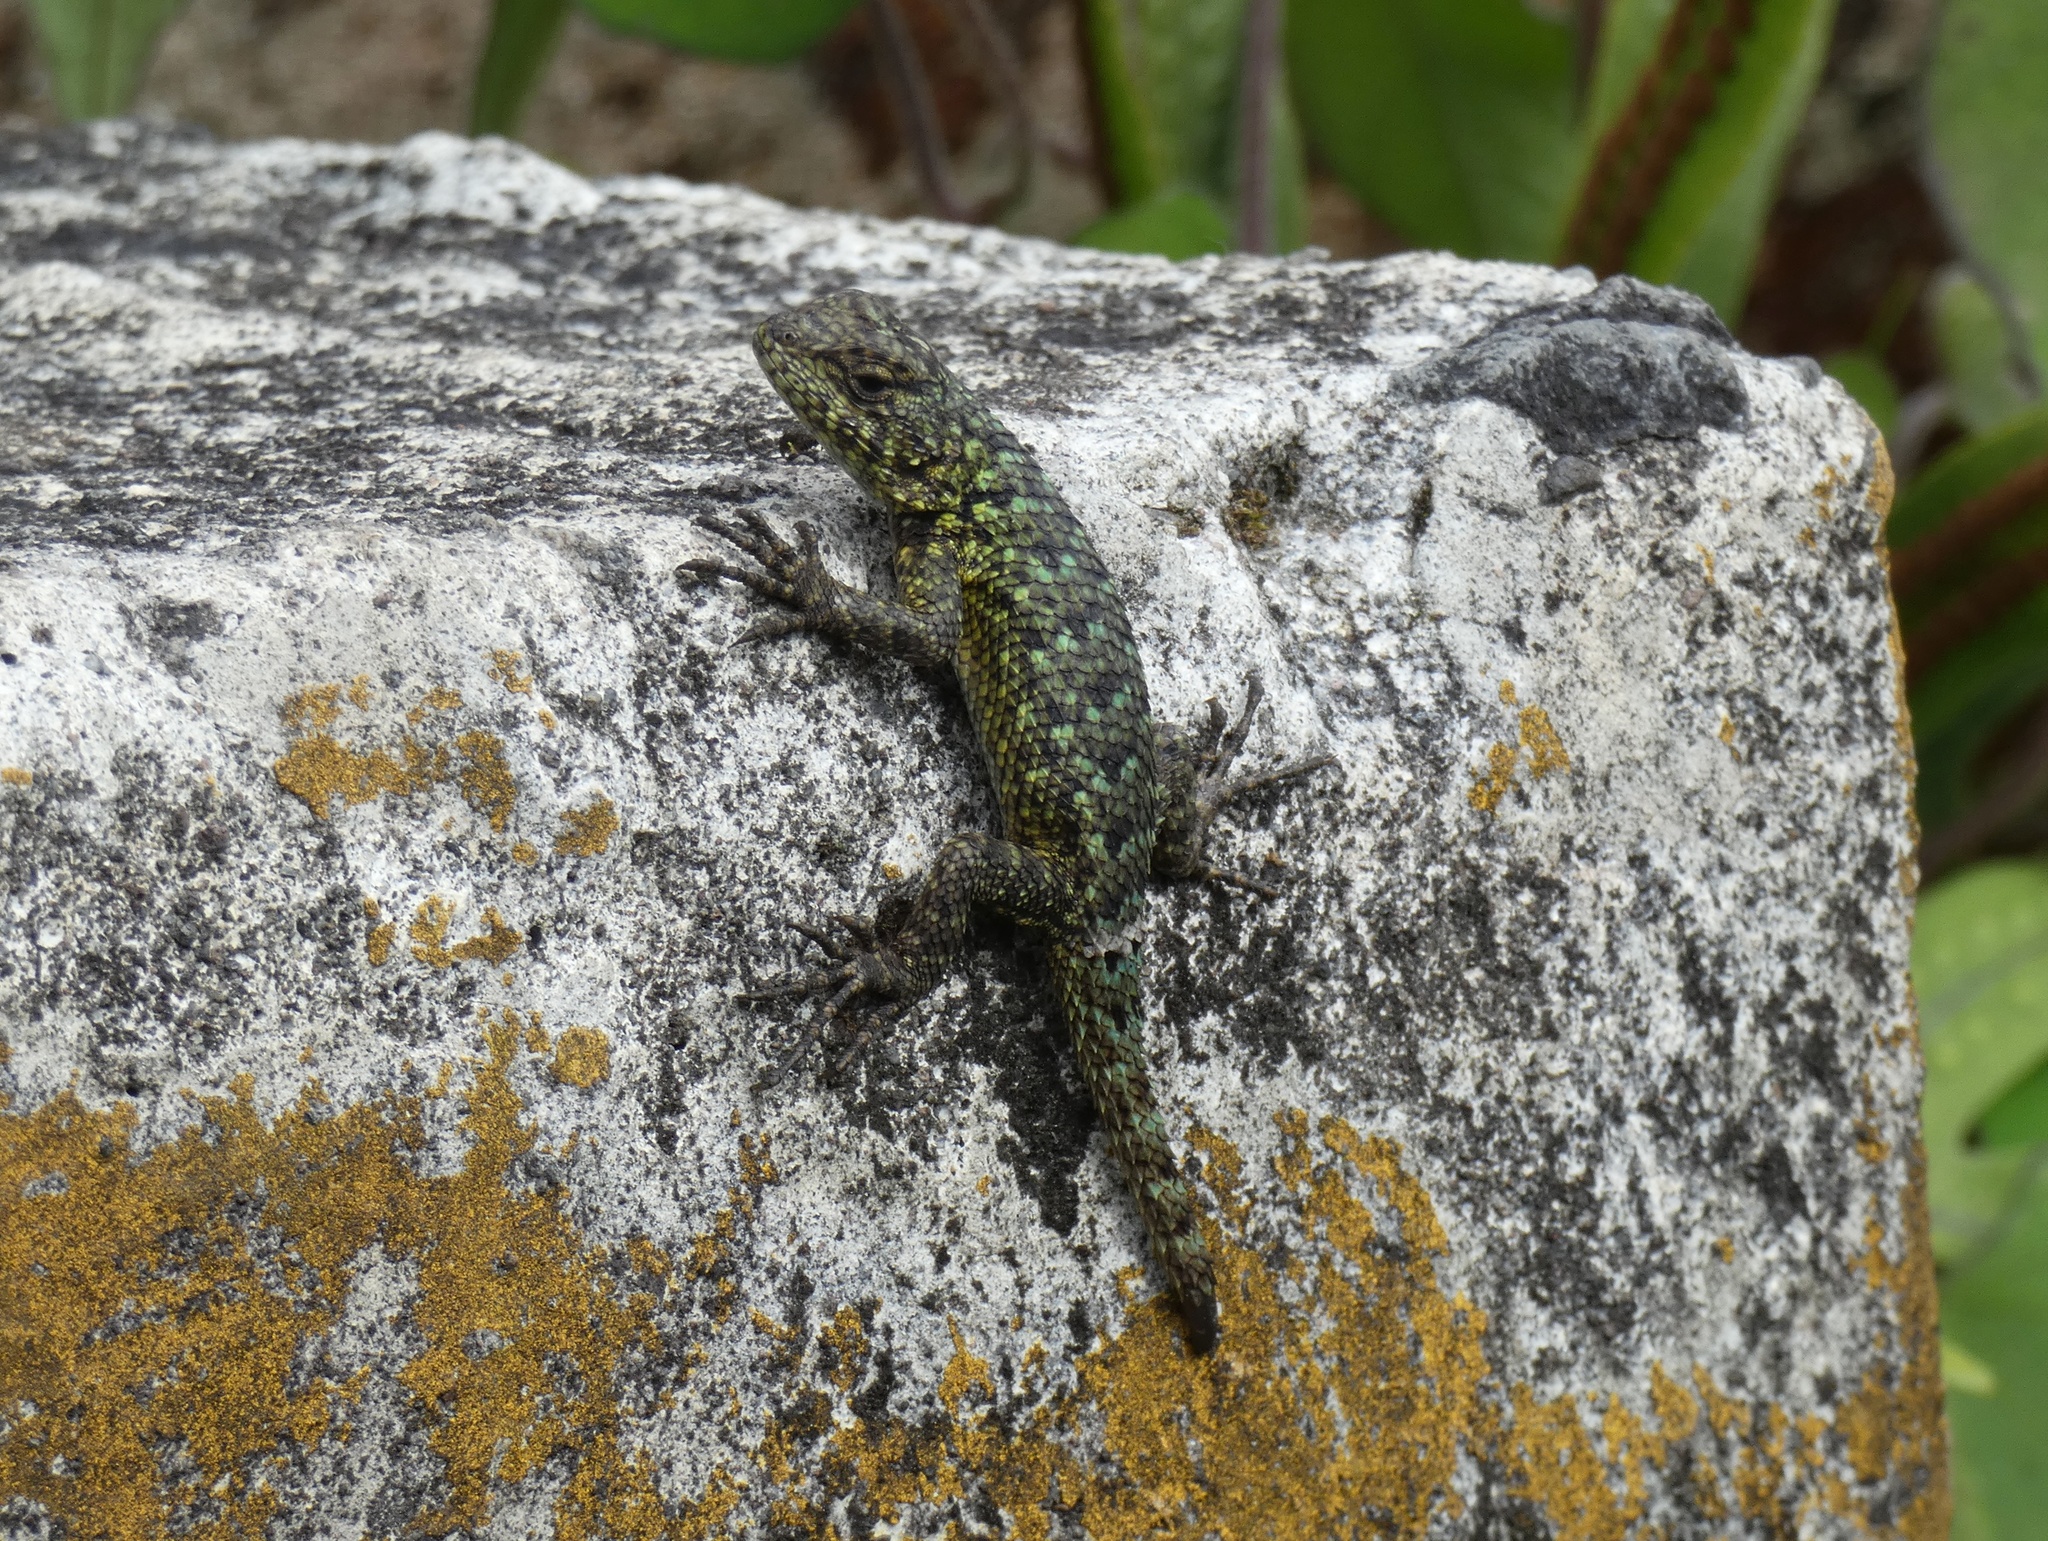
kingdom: Animalia
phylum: Chordata
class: Squamata
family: Phrynosomatidae
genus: Sceloporus
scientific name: Sceloporus malachiticus
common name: Green spiny lizard
